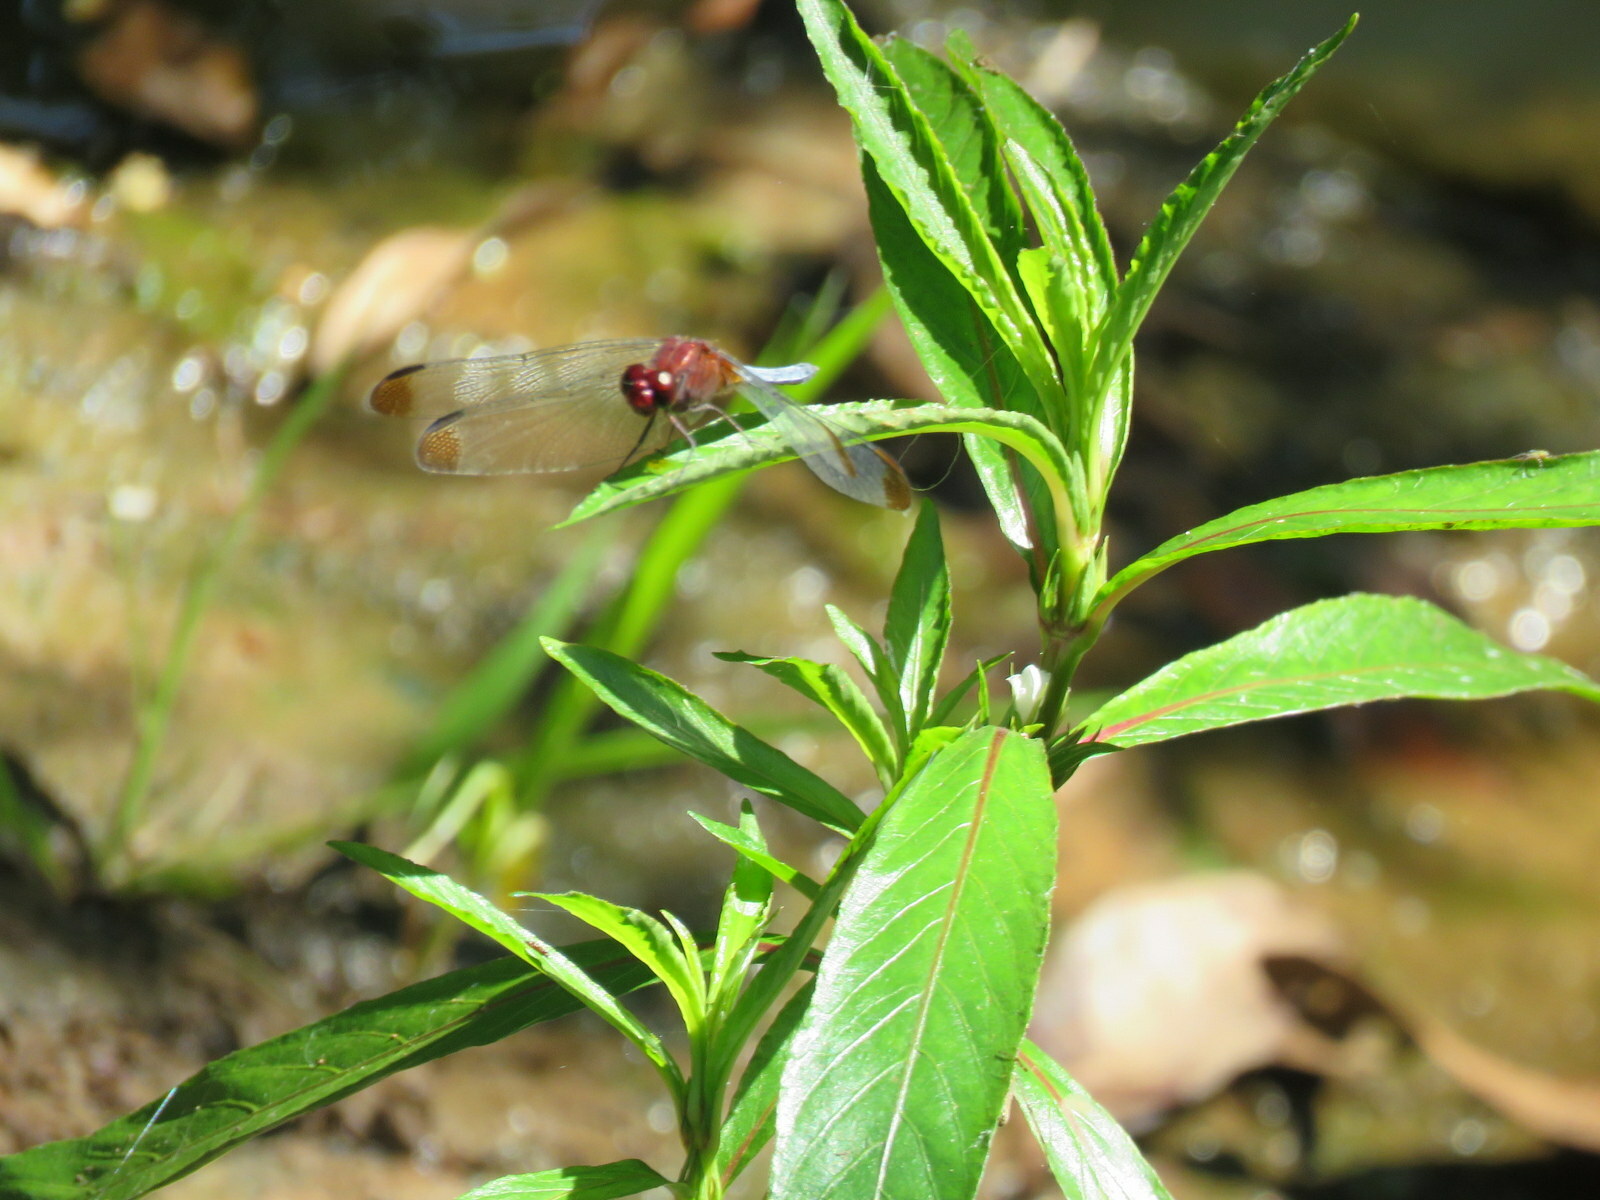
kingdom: Animalia
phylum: Arthropoda
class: Insecta
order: Odonata
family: Libellulidae
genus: Erythrodiplax
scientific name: Erythrodiplax atroterminata
